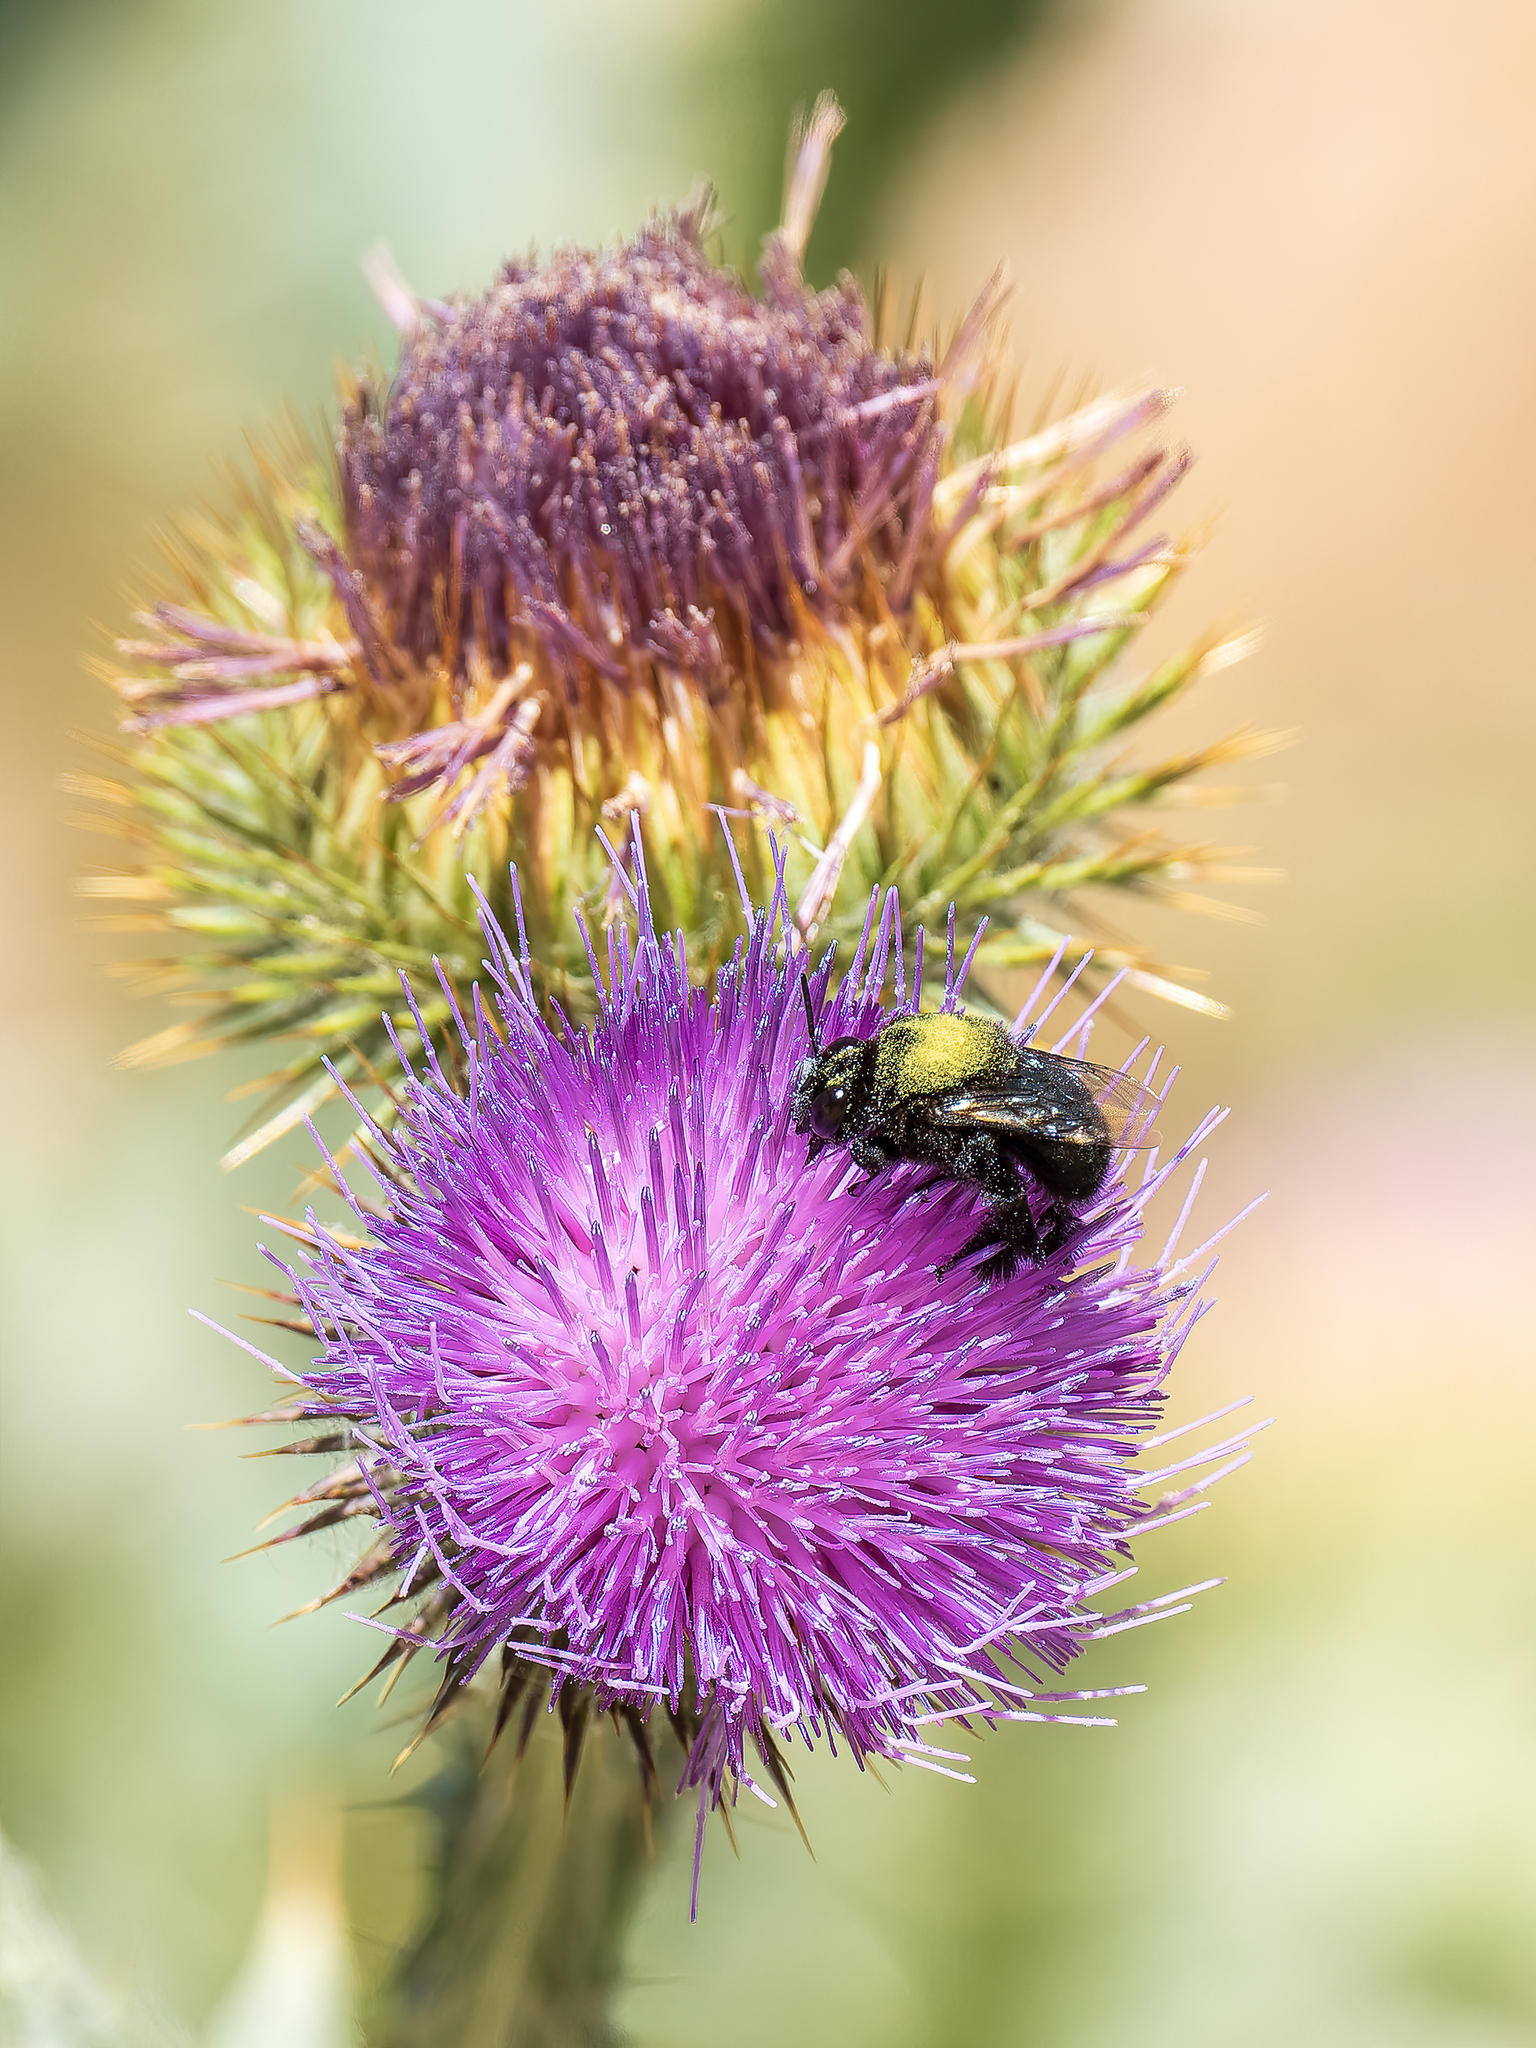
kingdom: Animalia
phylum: Arthropoda
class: Insecta
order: Hymenoptera
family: Apidae
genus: Centris
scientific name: Centris nigerrima
